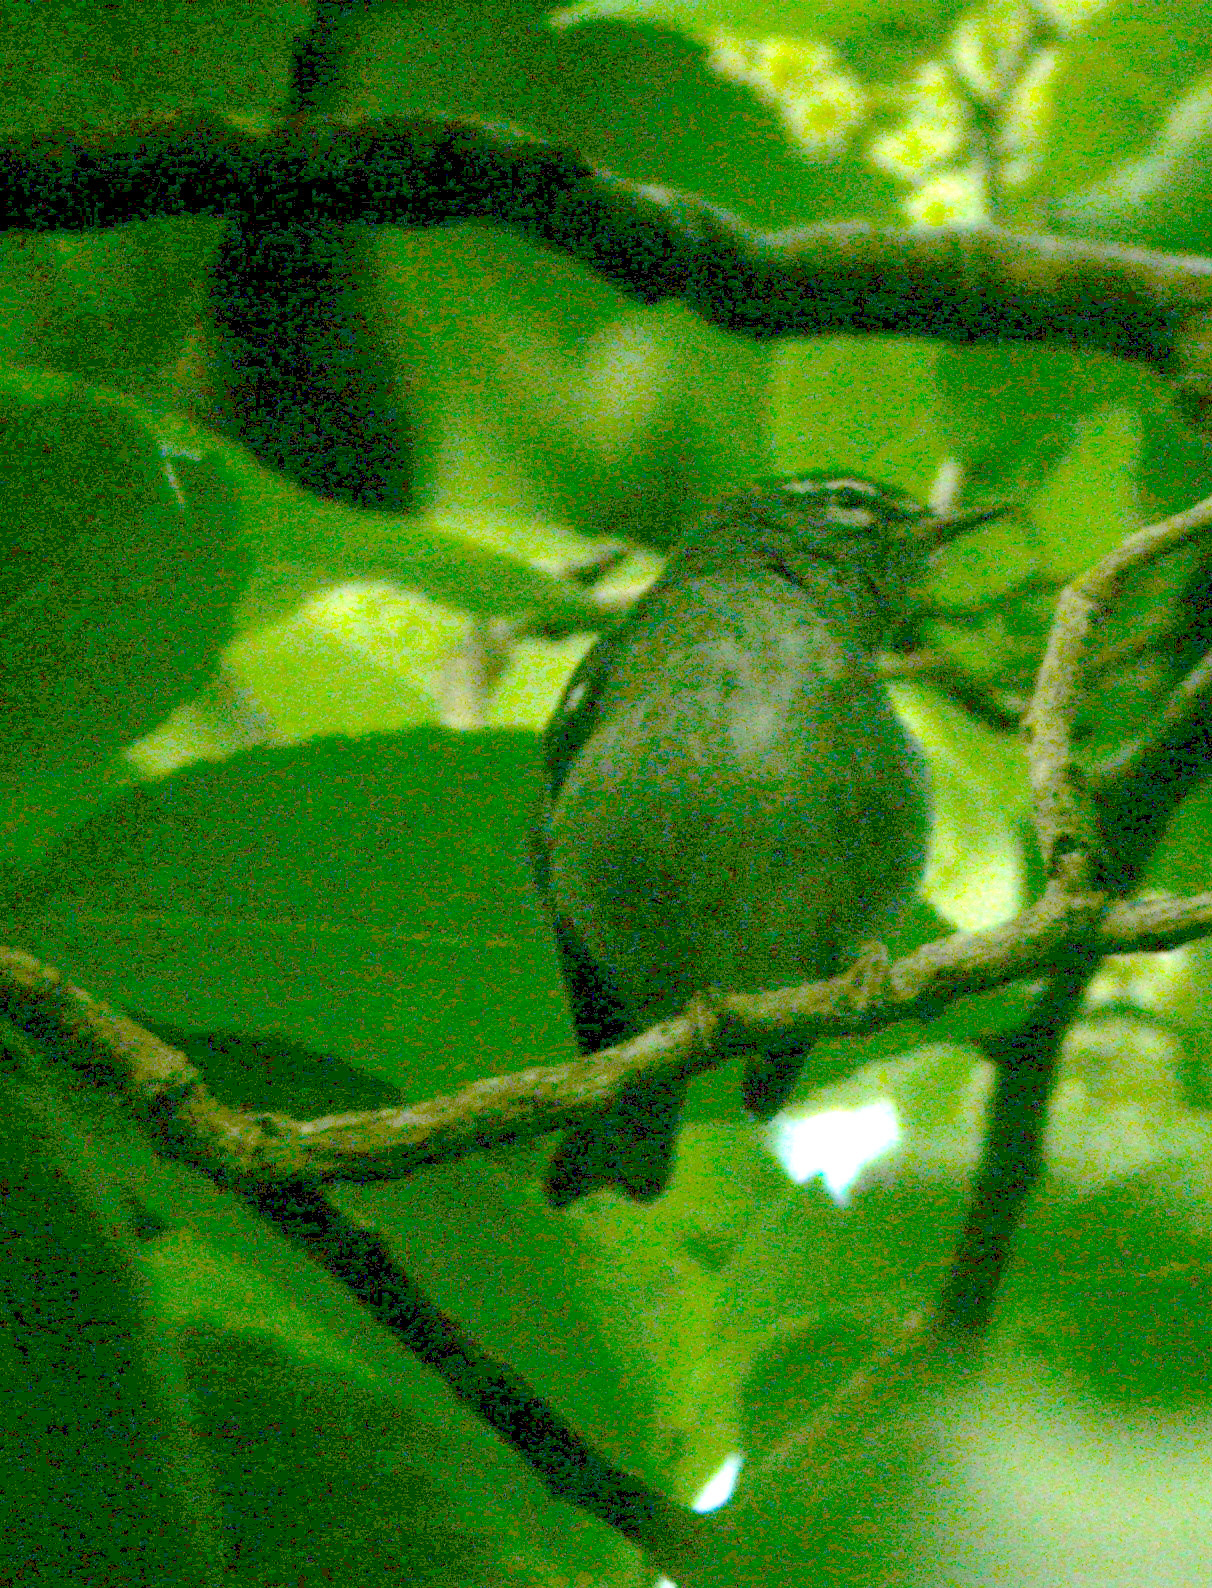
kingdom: Animalia
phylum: Chordata
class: Aves
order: Passeriformes
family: Parulidae
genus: Setophaga
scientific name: Setophaga plumbea
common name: Plumbeous warbler
